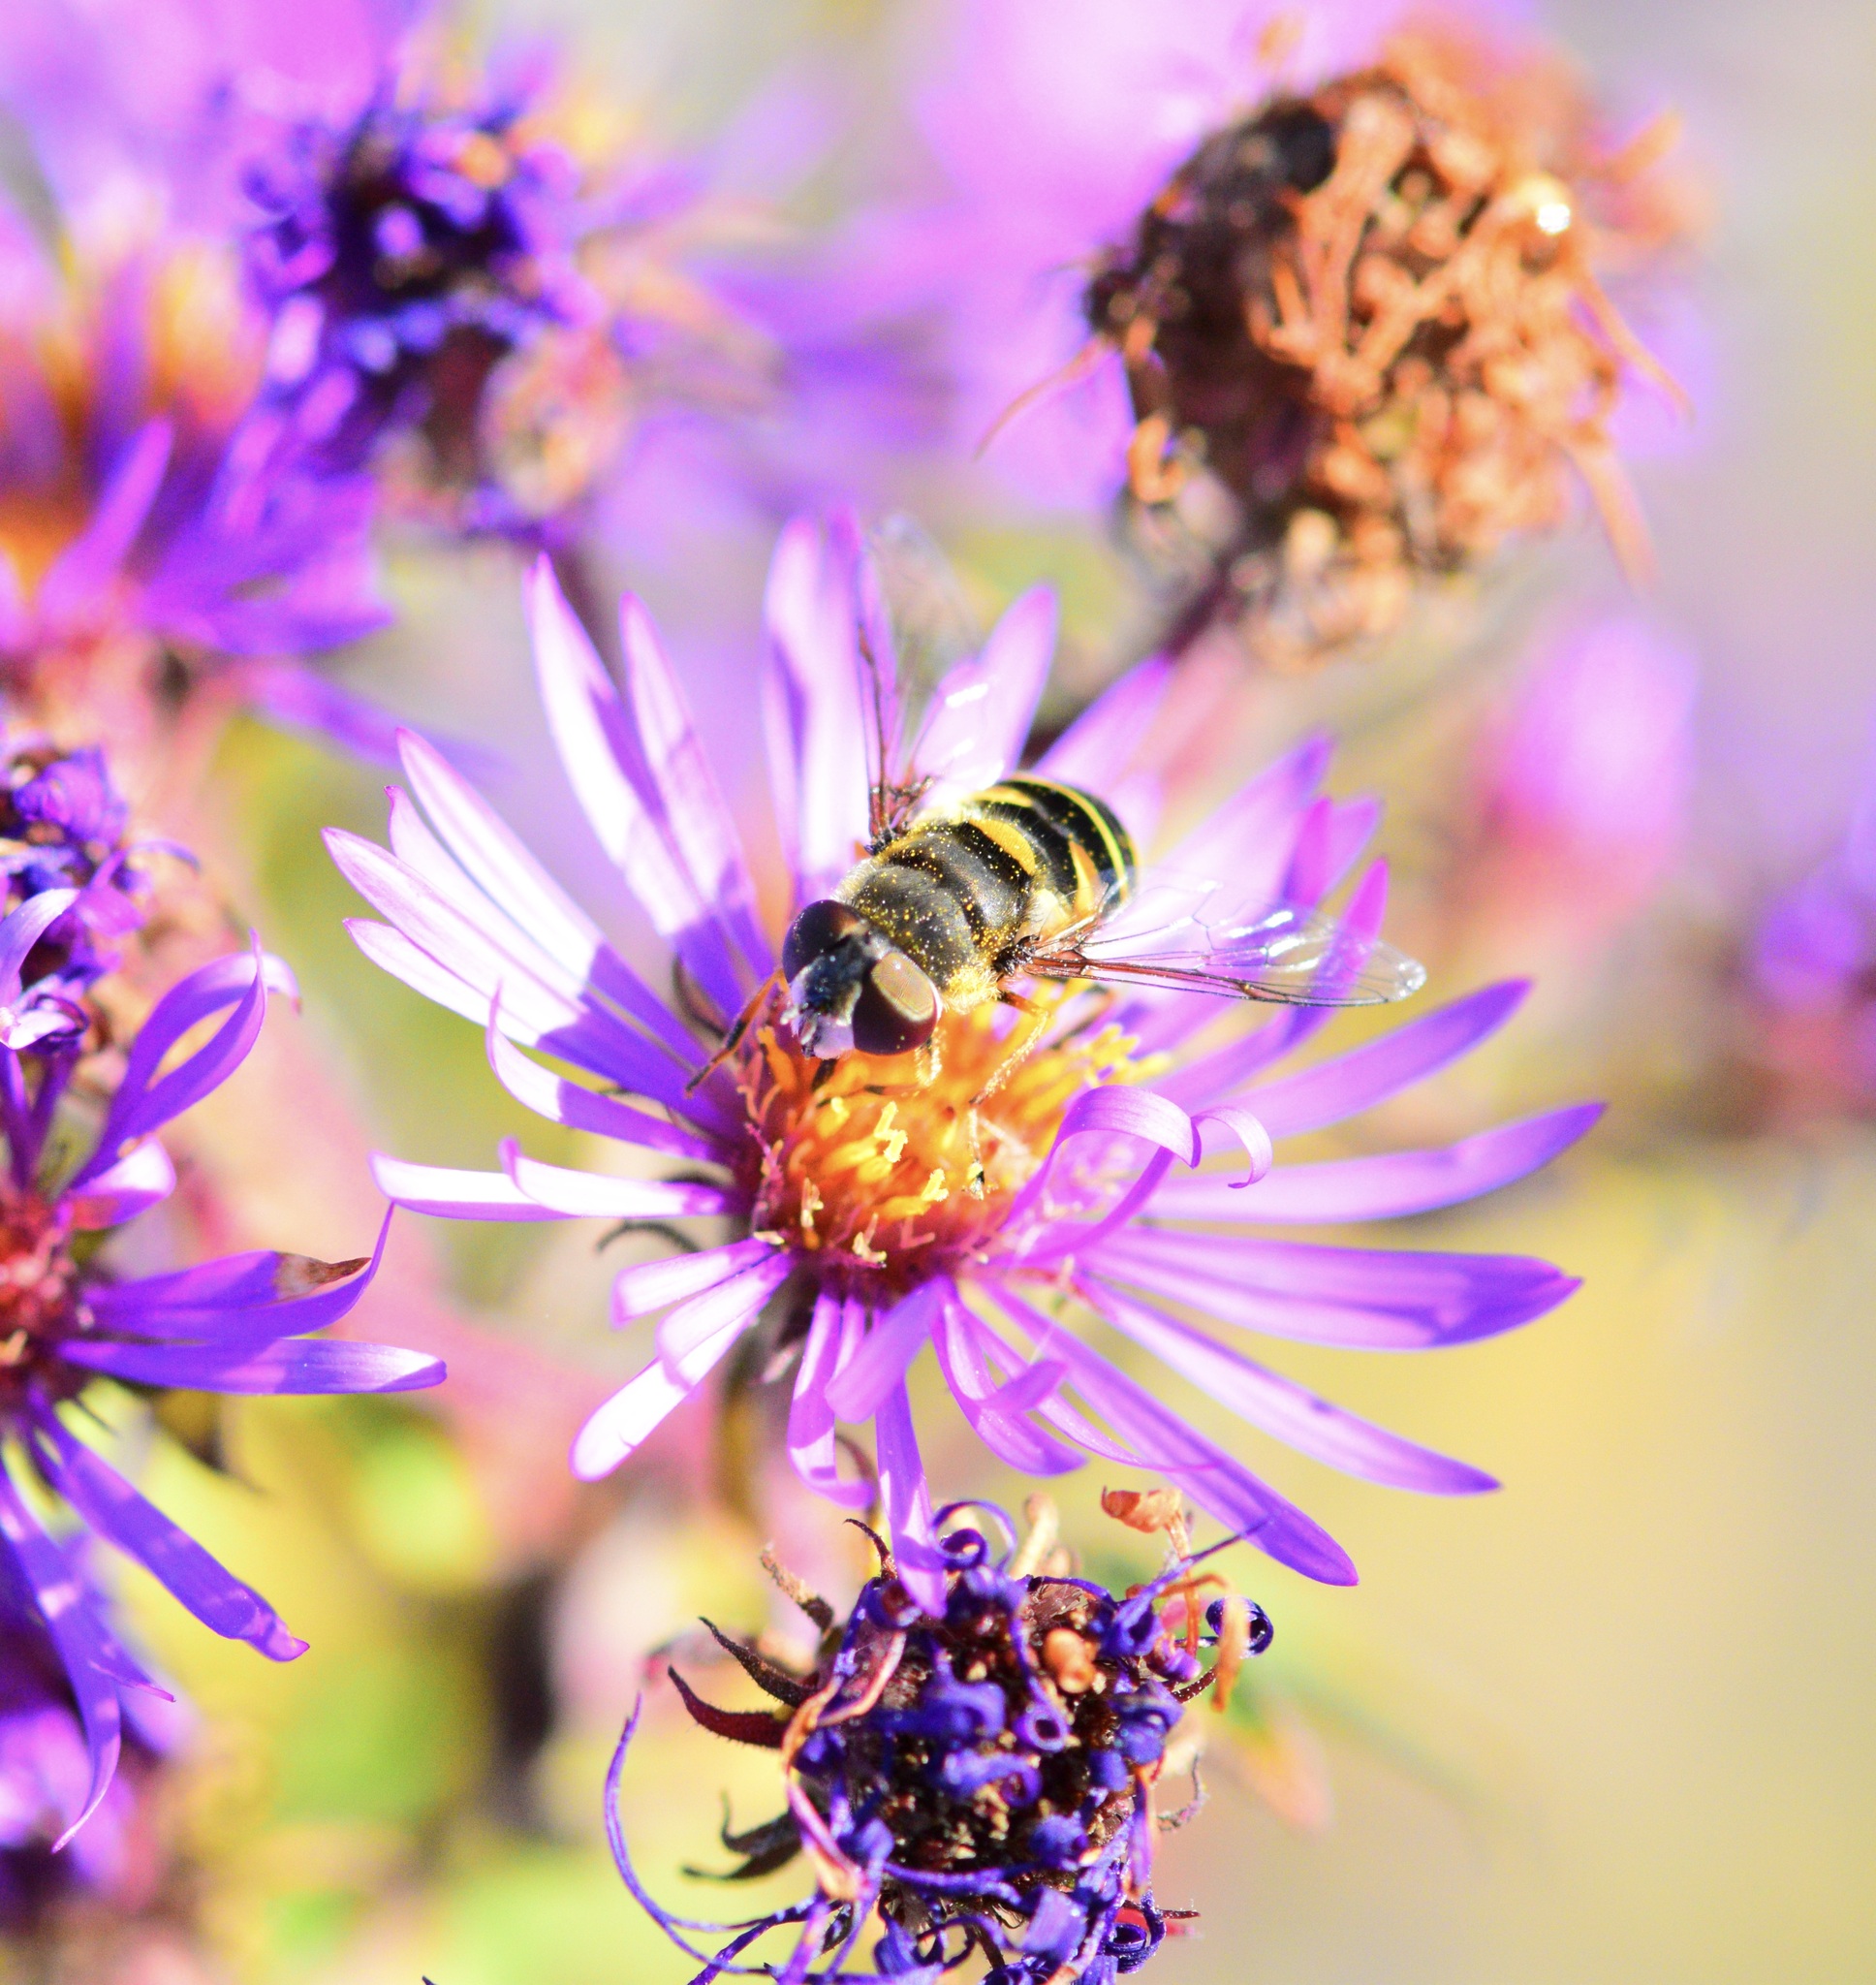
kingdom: Animalia
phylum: Arthropoda
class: Insecta
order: Diptera
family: Syrphidae
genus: Eristalis
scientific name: Eristalis transversa
